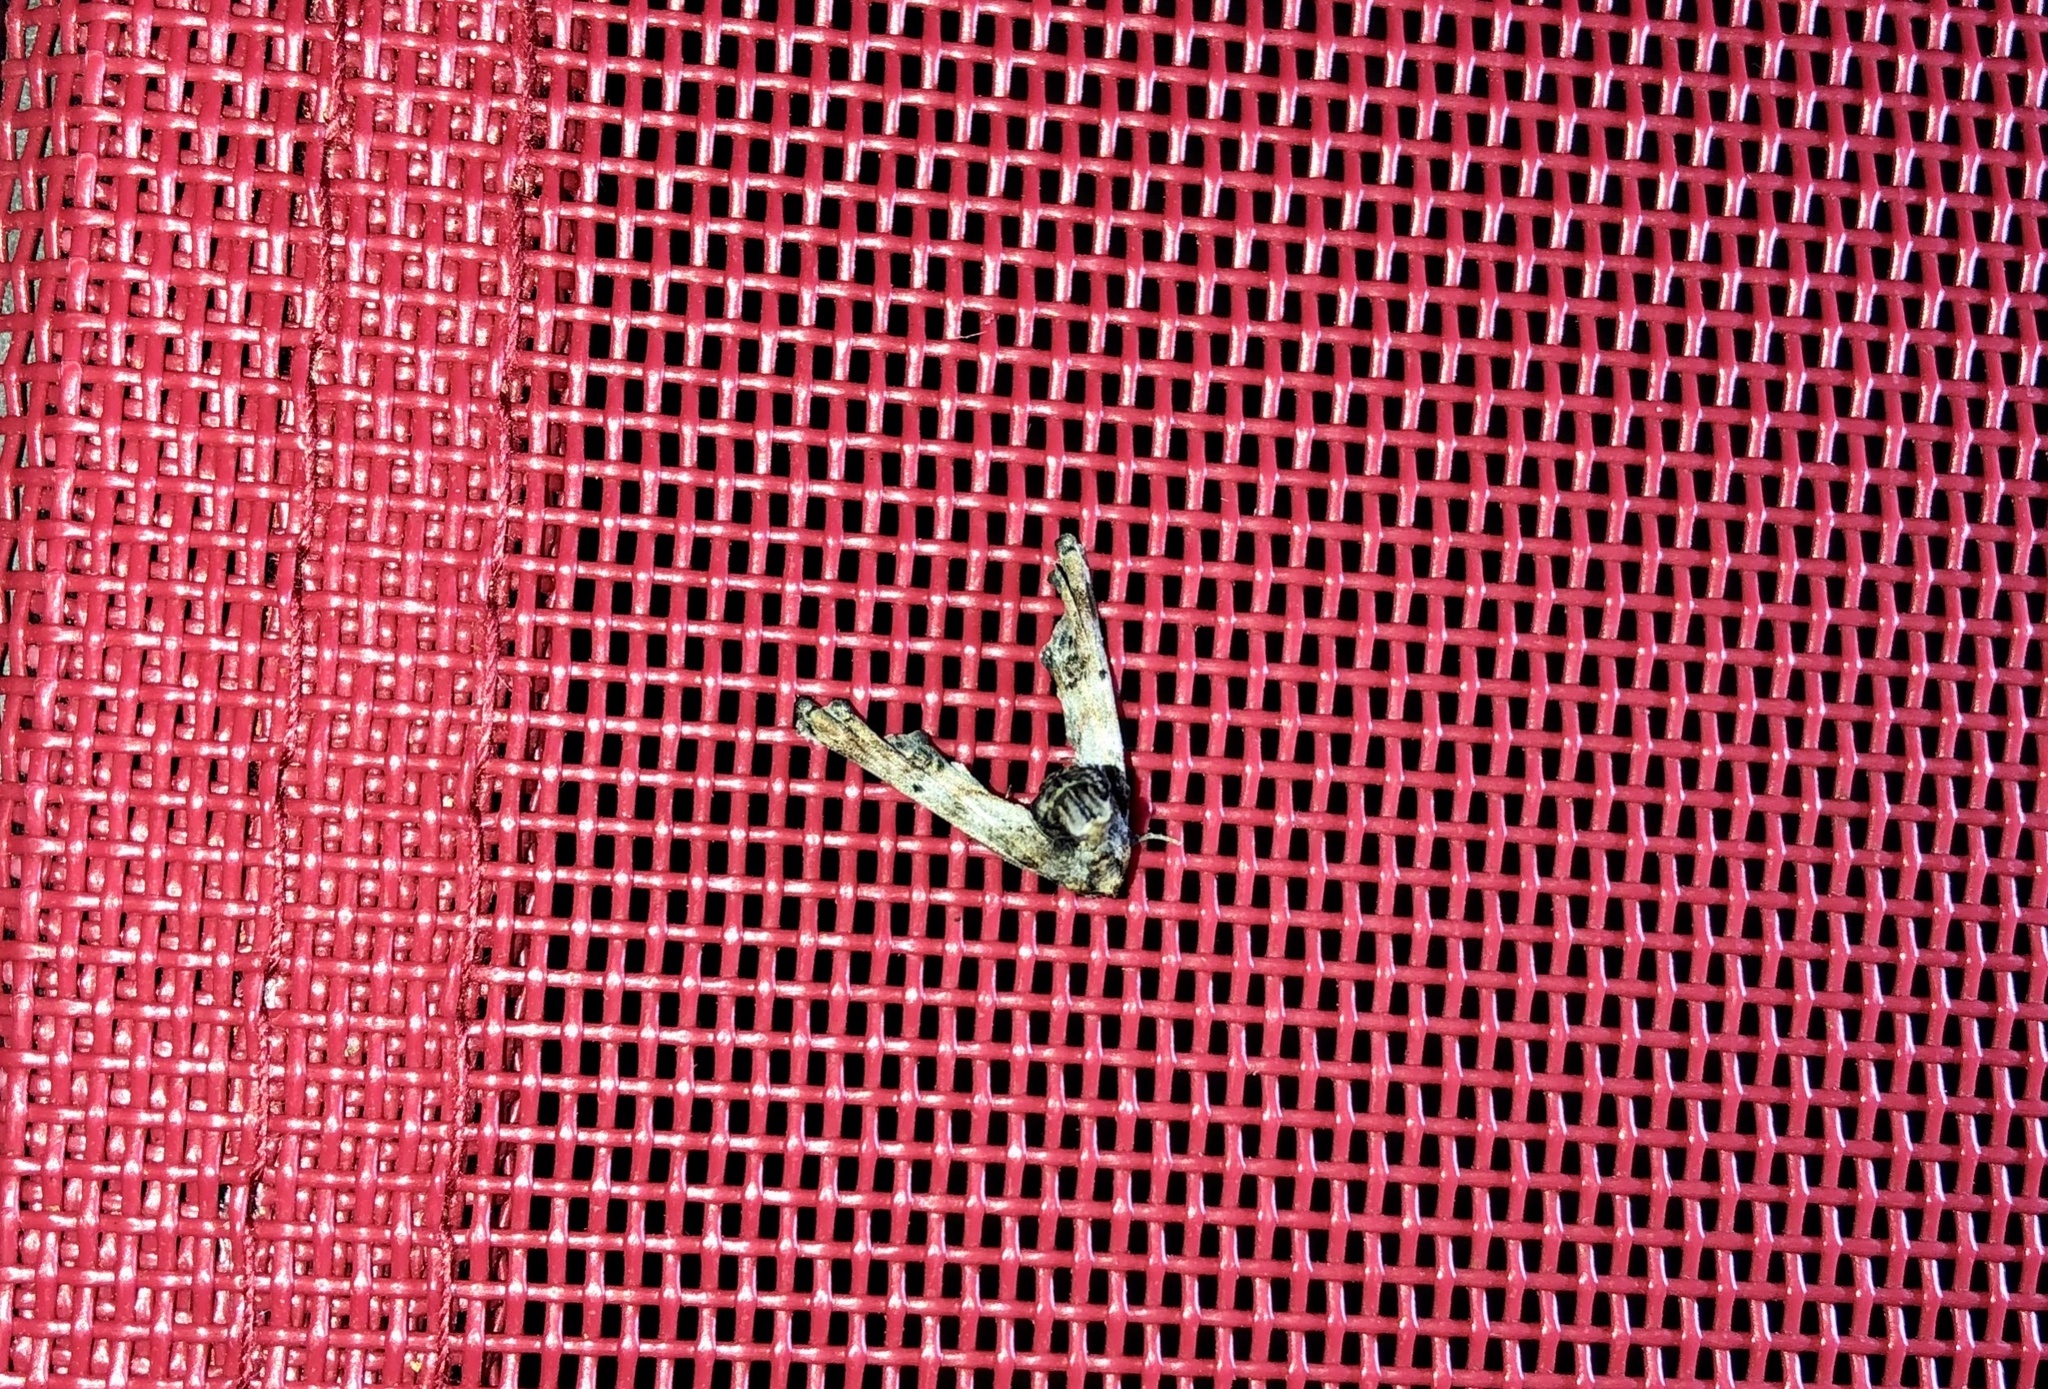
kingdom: Animalia
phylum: Arthropoda
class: Insecta
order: Lepidoptera
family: Euteliidae
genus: Marathyssa
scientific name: Marathyssa inficita
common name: Dark marathyssa moth
